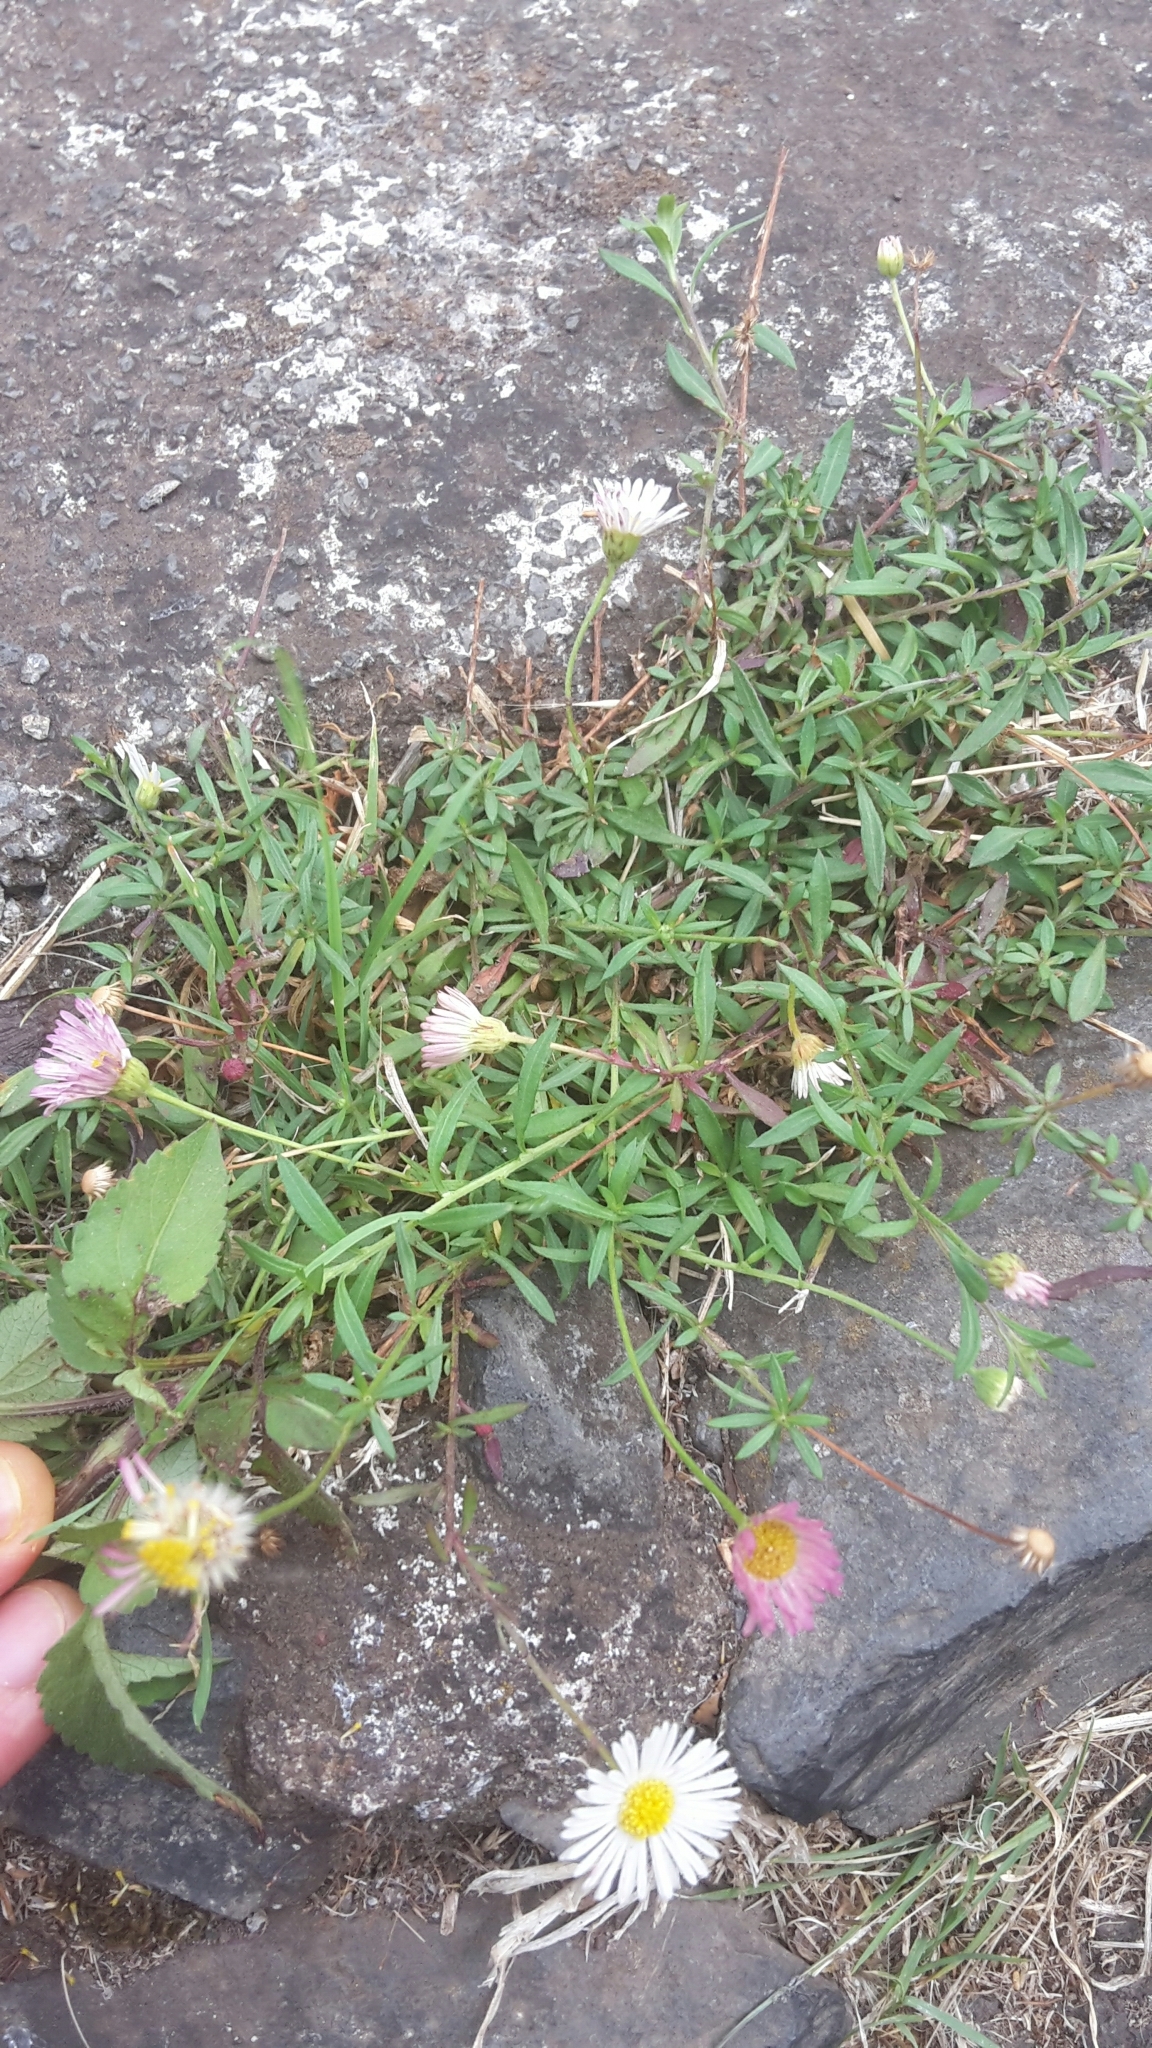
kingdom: Plantae
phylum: Tracheophyta
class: Magnoliopsida
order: Asterales
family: Asteraceae
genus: Erigeron
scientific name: Erigeron karvinskianus
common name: Mexican fleabane
